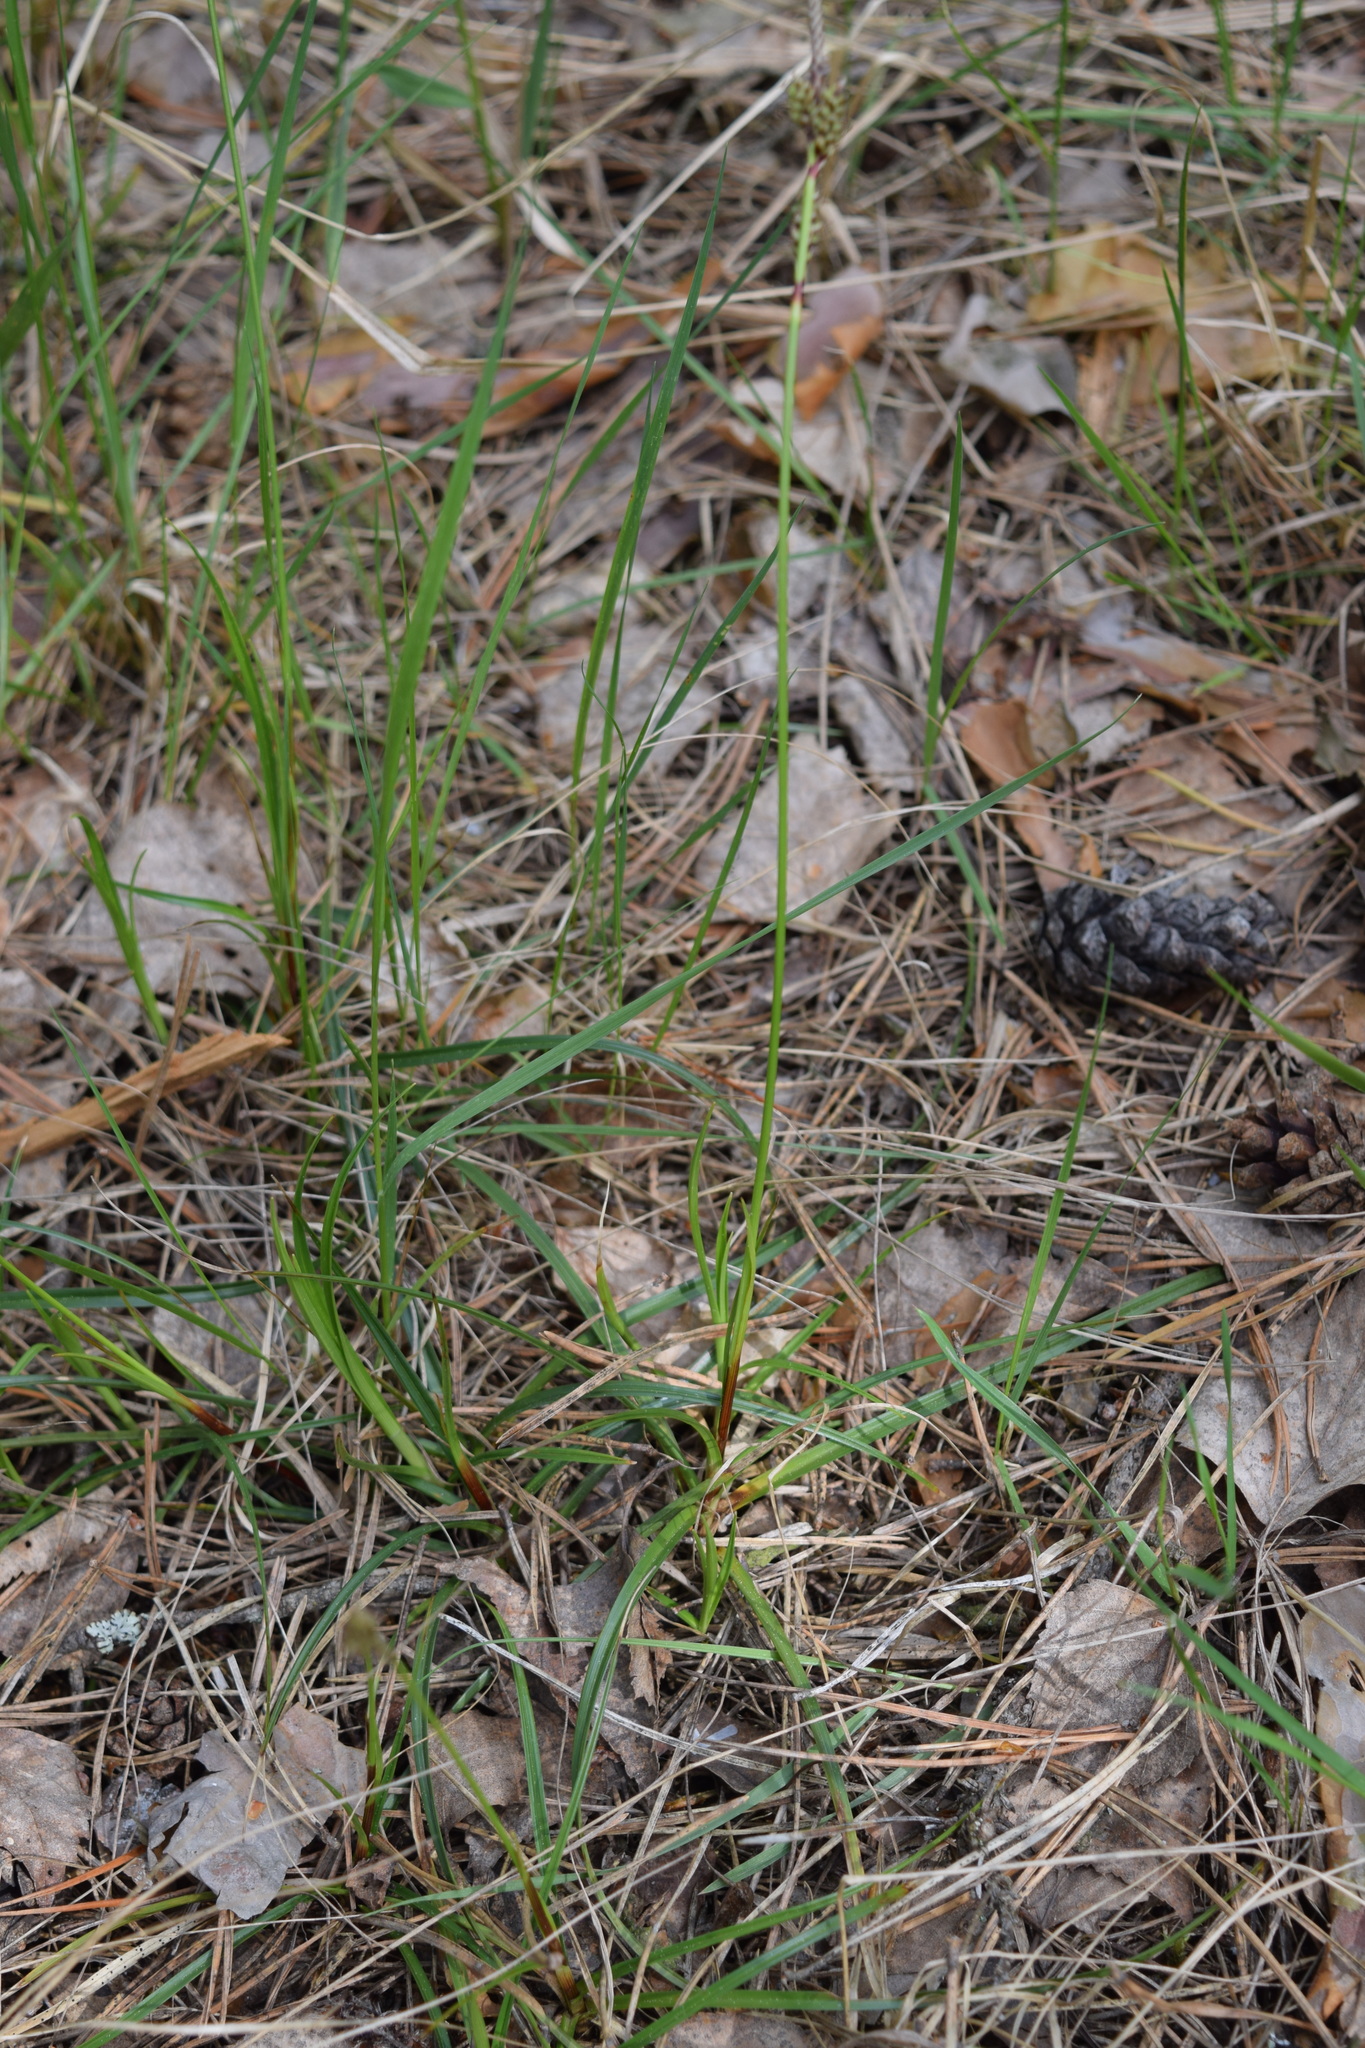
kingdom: Plantae
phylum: Tracheophyta
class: Liliopsida
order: Poales
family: Cyperaceae
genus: Carex
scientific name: Carex ericetorum
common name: Rare spring-sedge
